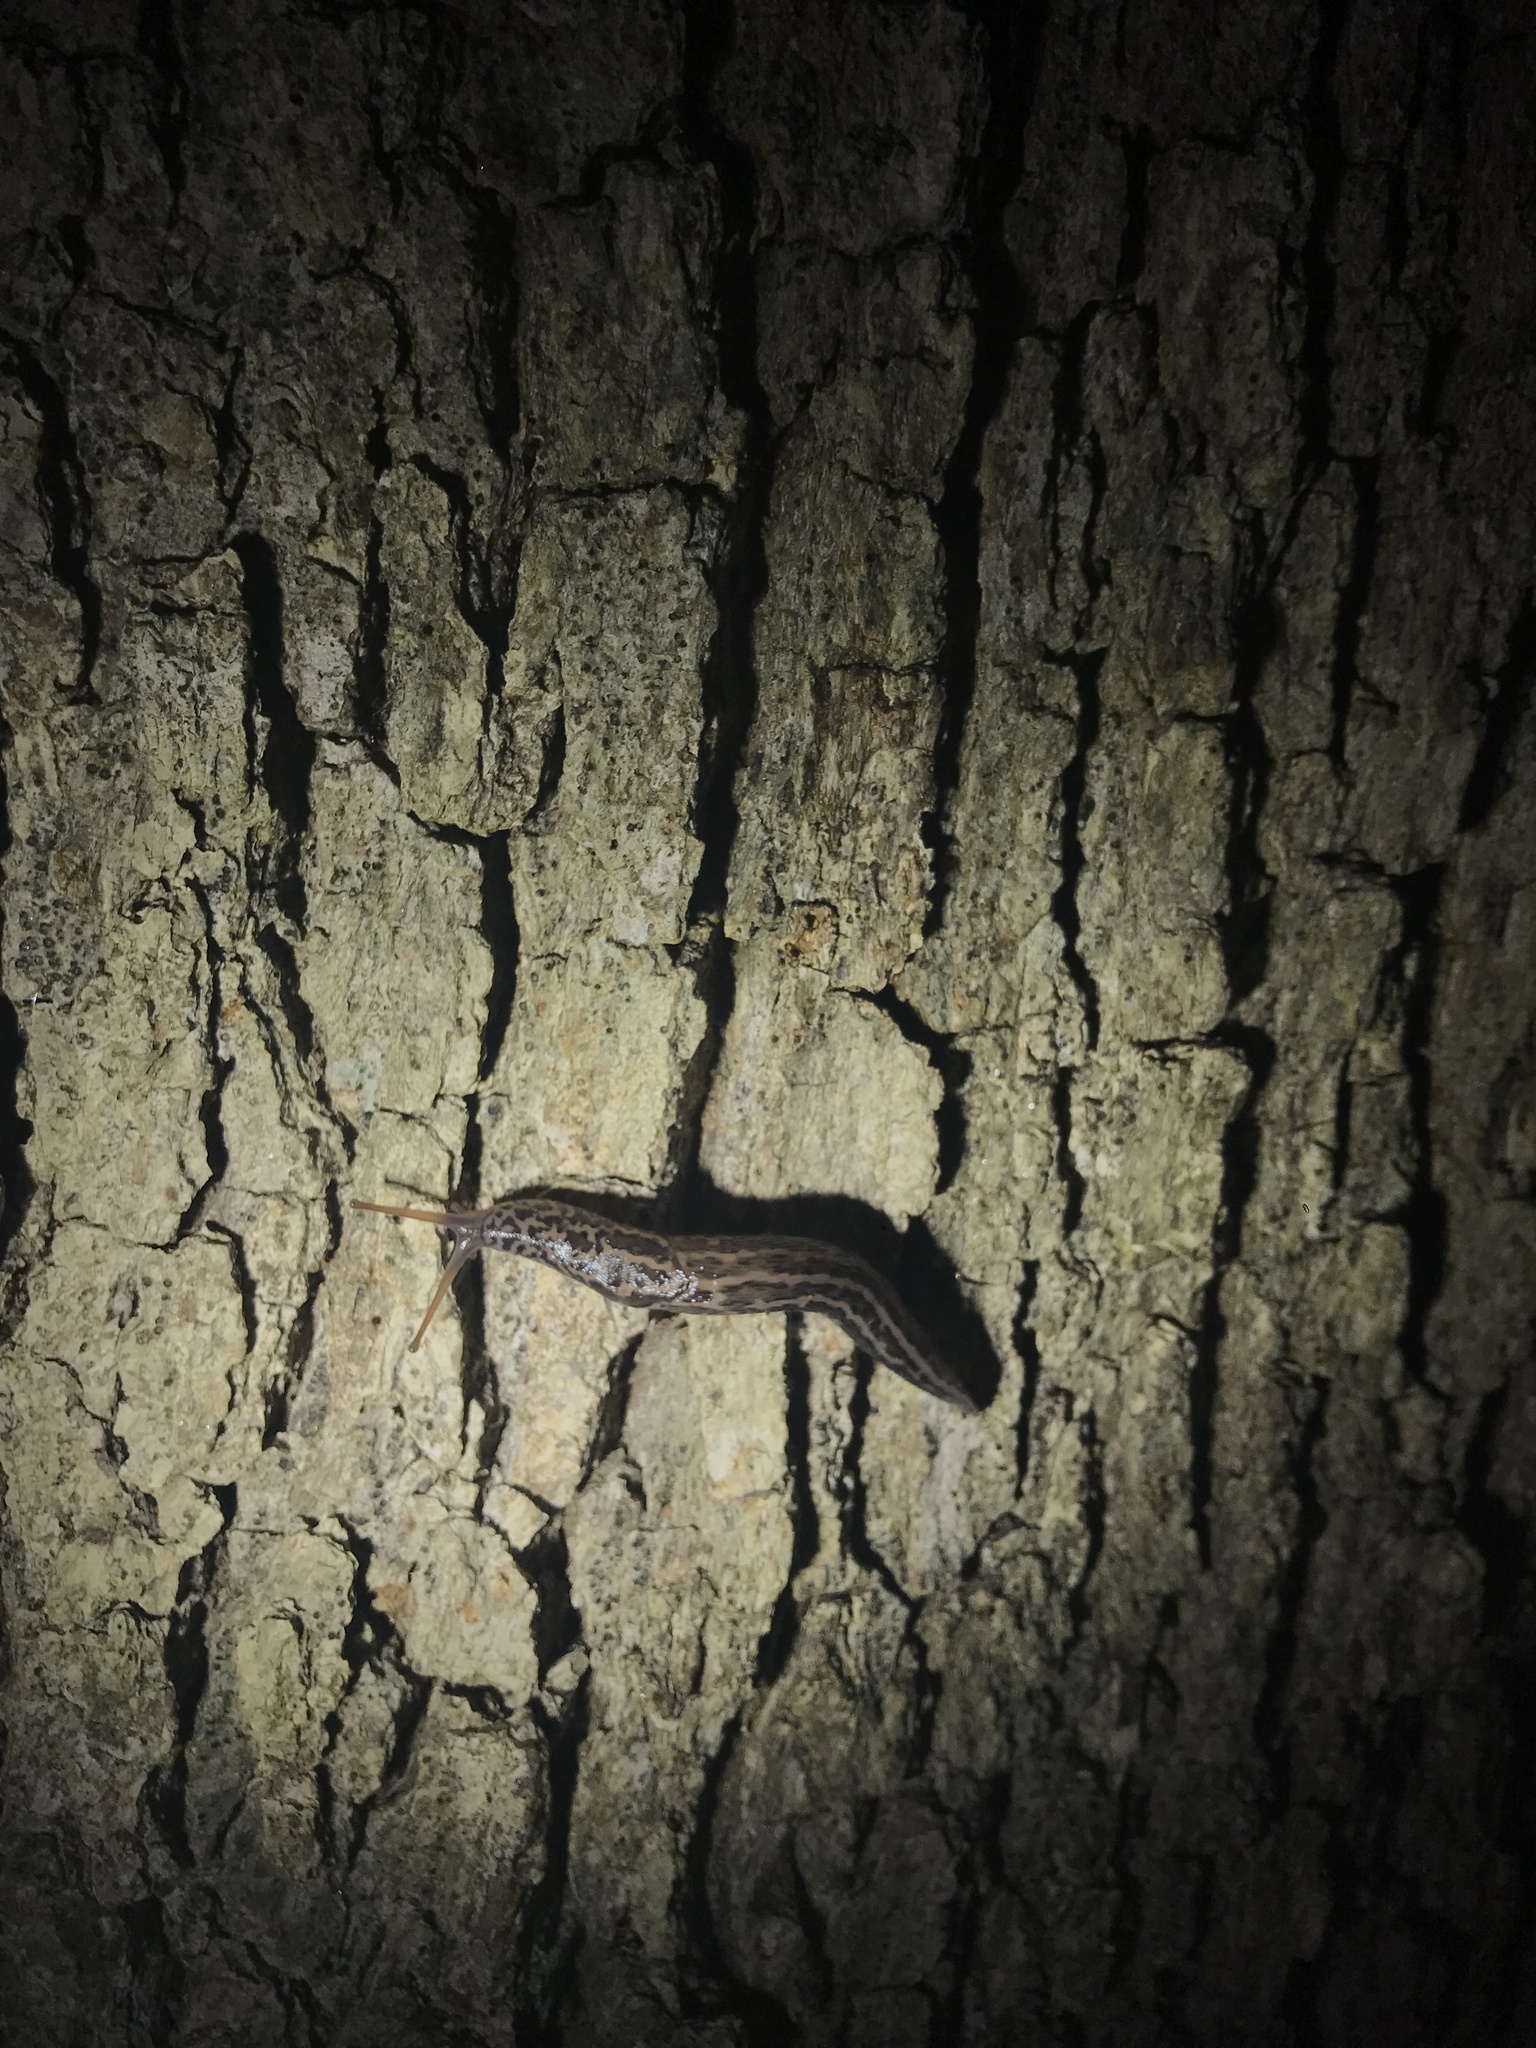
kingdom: Animalia
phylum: Mollusca
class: Gastropoda
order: Stylommatophora
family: Limacidae
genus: Limax
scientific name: Limax maximus
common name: Great grey slug
